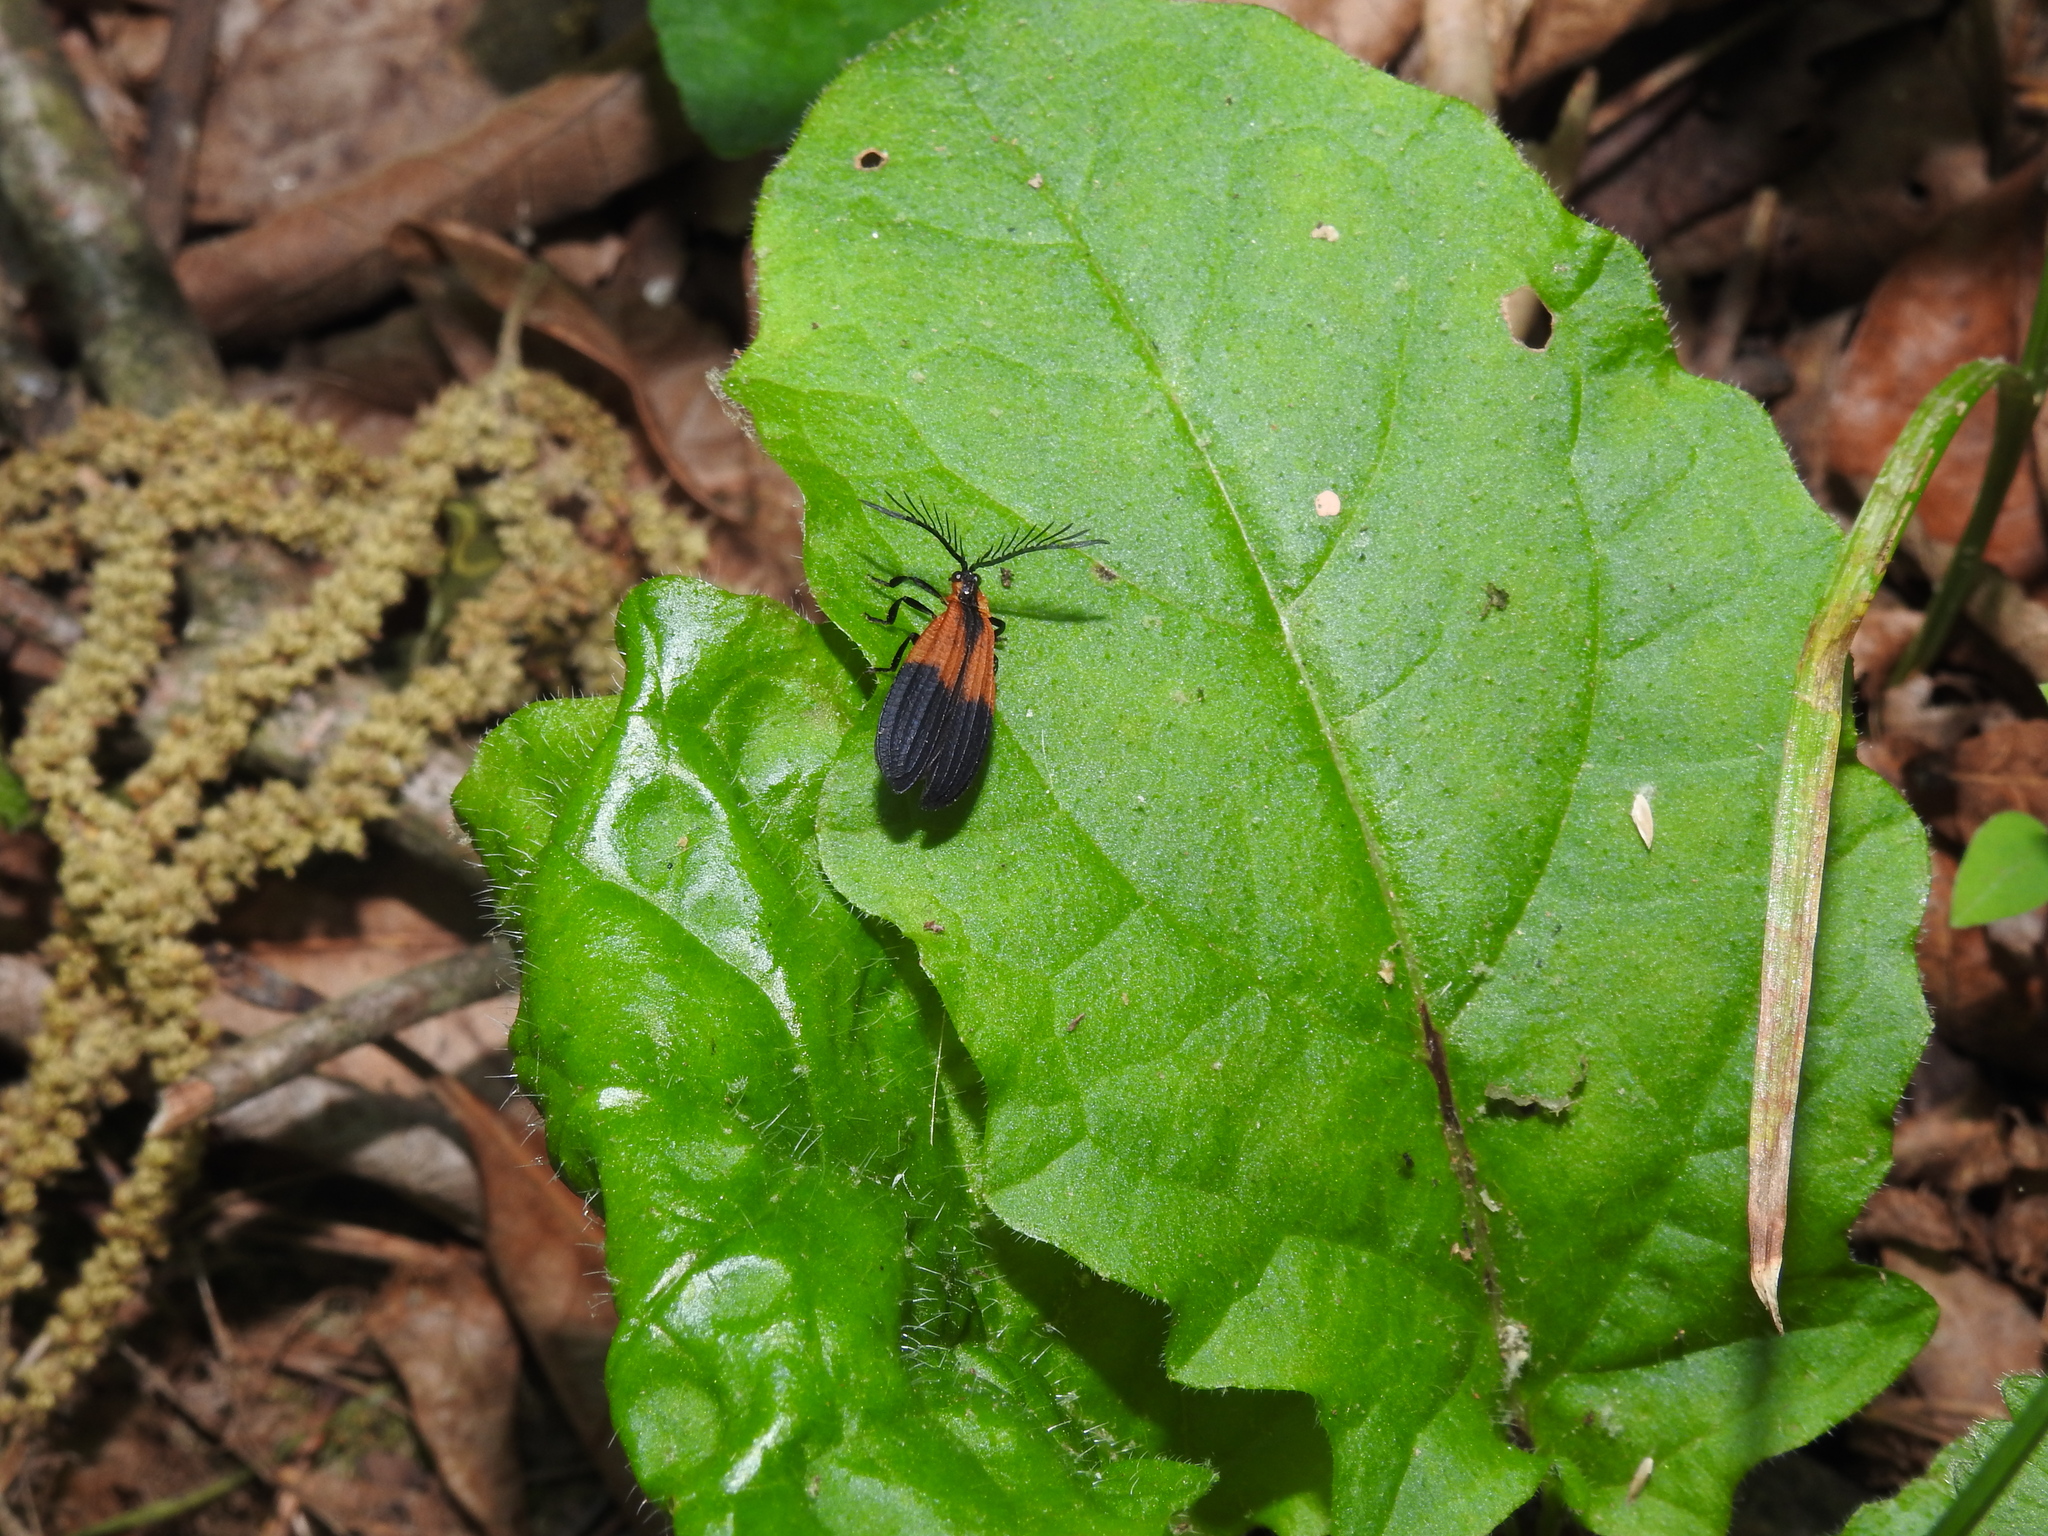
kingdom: Animalia
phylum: Arthropoda
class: Insecta
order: Coleoptera
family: Lycidae
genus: Caenia
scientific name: Caenia dimidiata
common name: Terminal net-winged beetle
